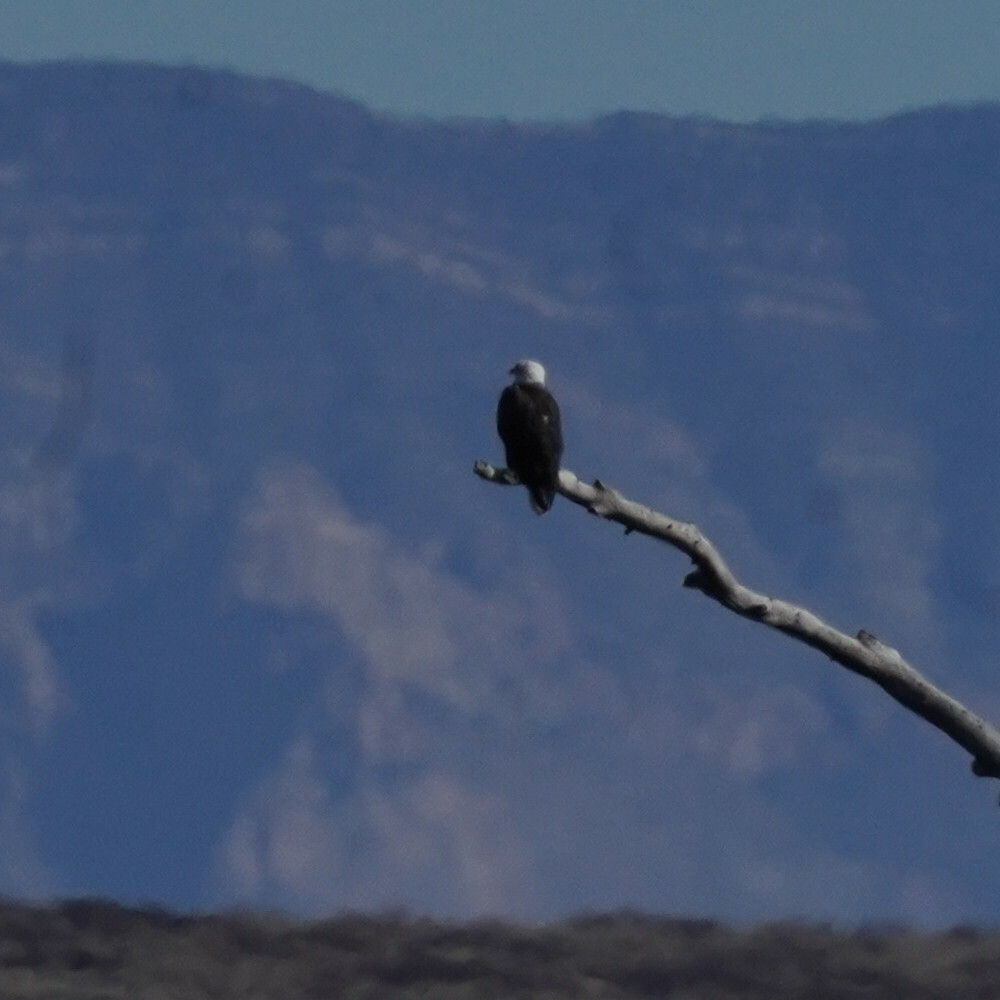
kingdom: Animalia
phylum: Chordata
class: Aves
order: Accipitriformes
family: Accipitridae
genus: Haliaeetus
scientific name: Haliaeetus leucocephalus
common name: Bald eagle
